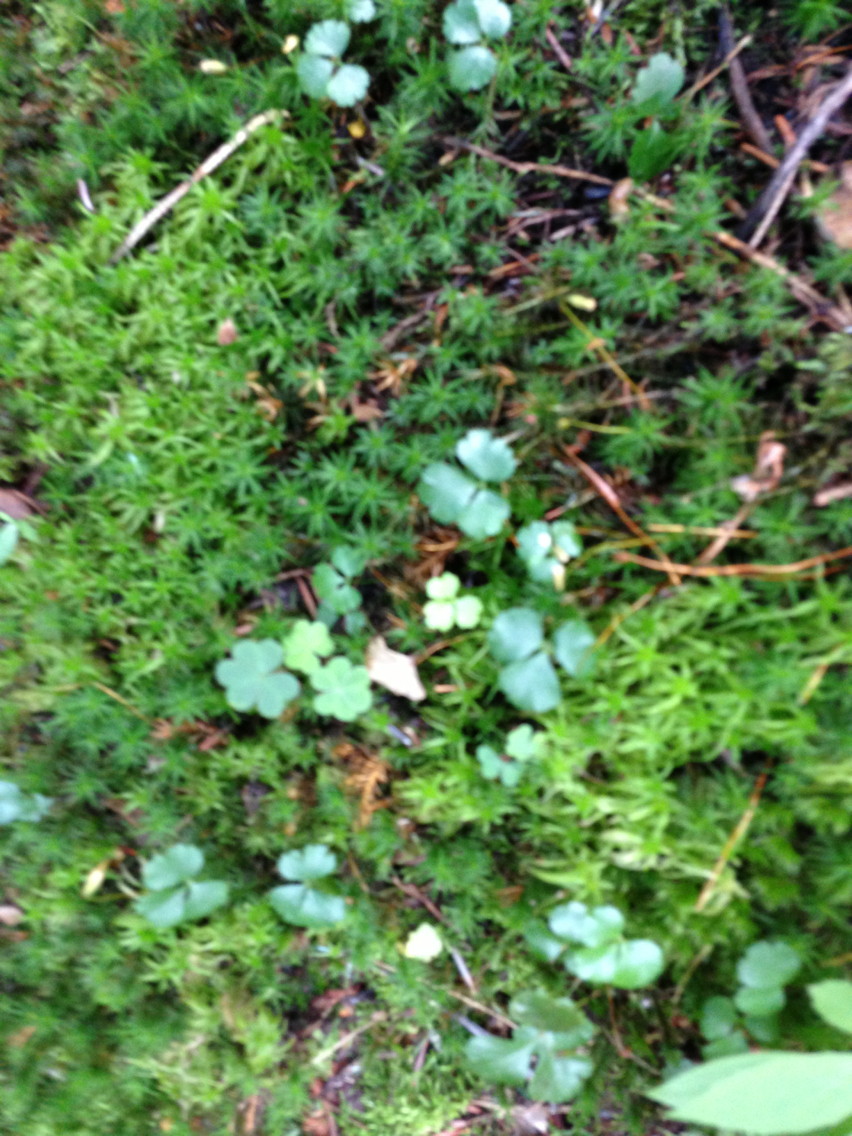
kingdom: Plantae
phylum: Tracheophyta
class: Magnoliopsida
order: Ranunculales
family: Ranunculaceae
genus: Coptis
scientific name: Coptis trifolia
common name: Canker-root
